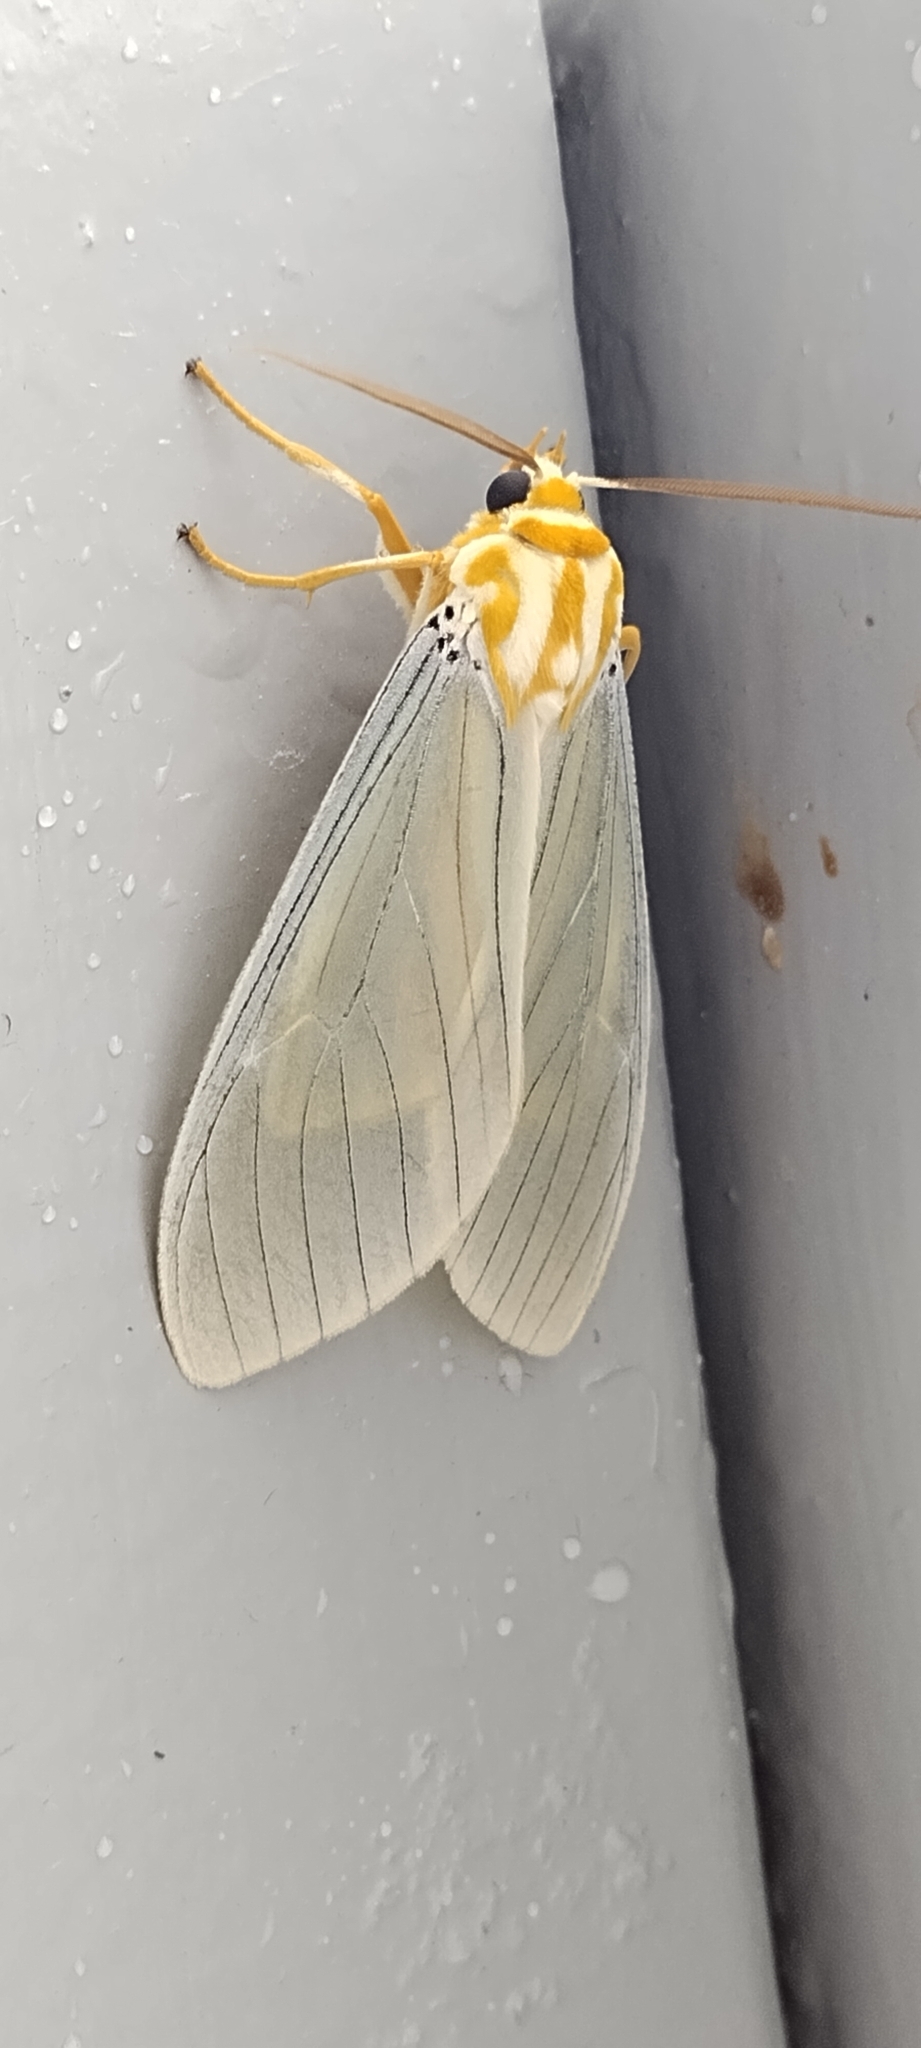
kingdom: Animalia
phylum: Arthropoda
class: Insecta
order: Lepidoptera
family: Erebidae
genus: Amastus
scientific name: Amastus thalassina
